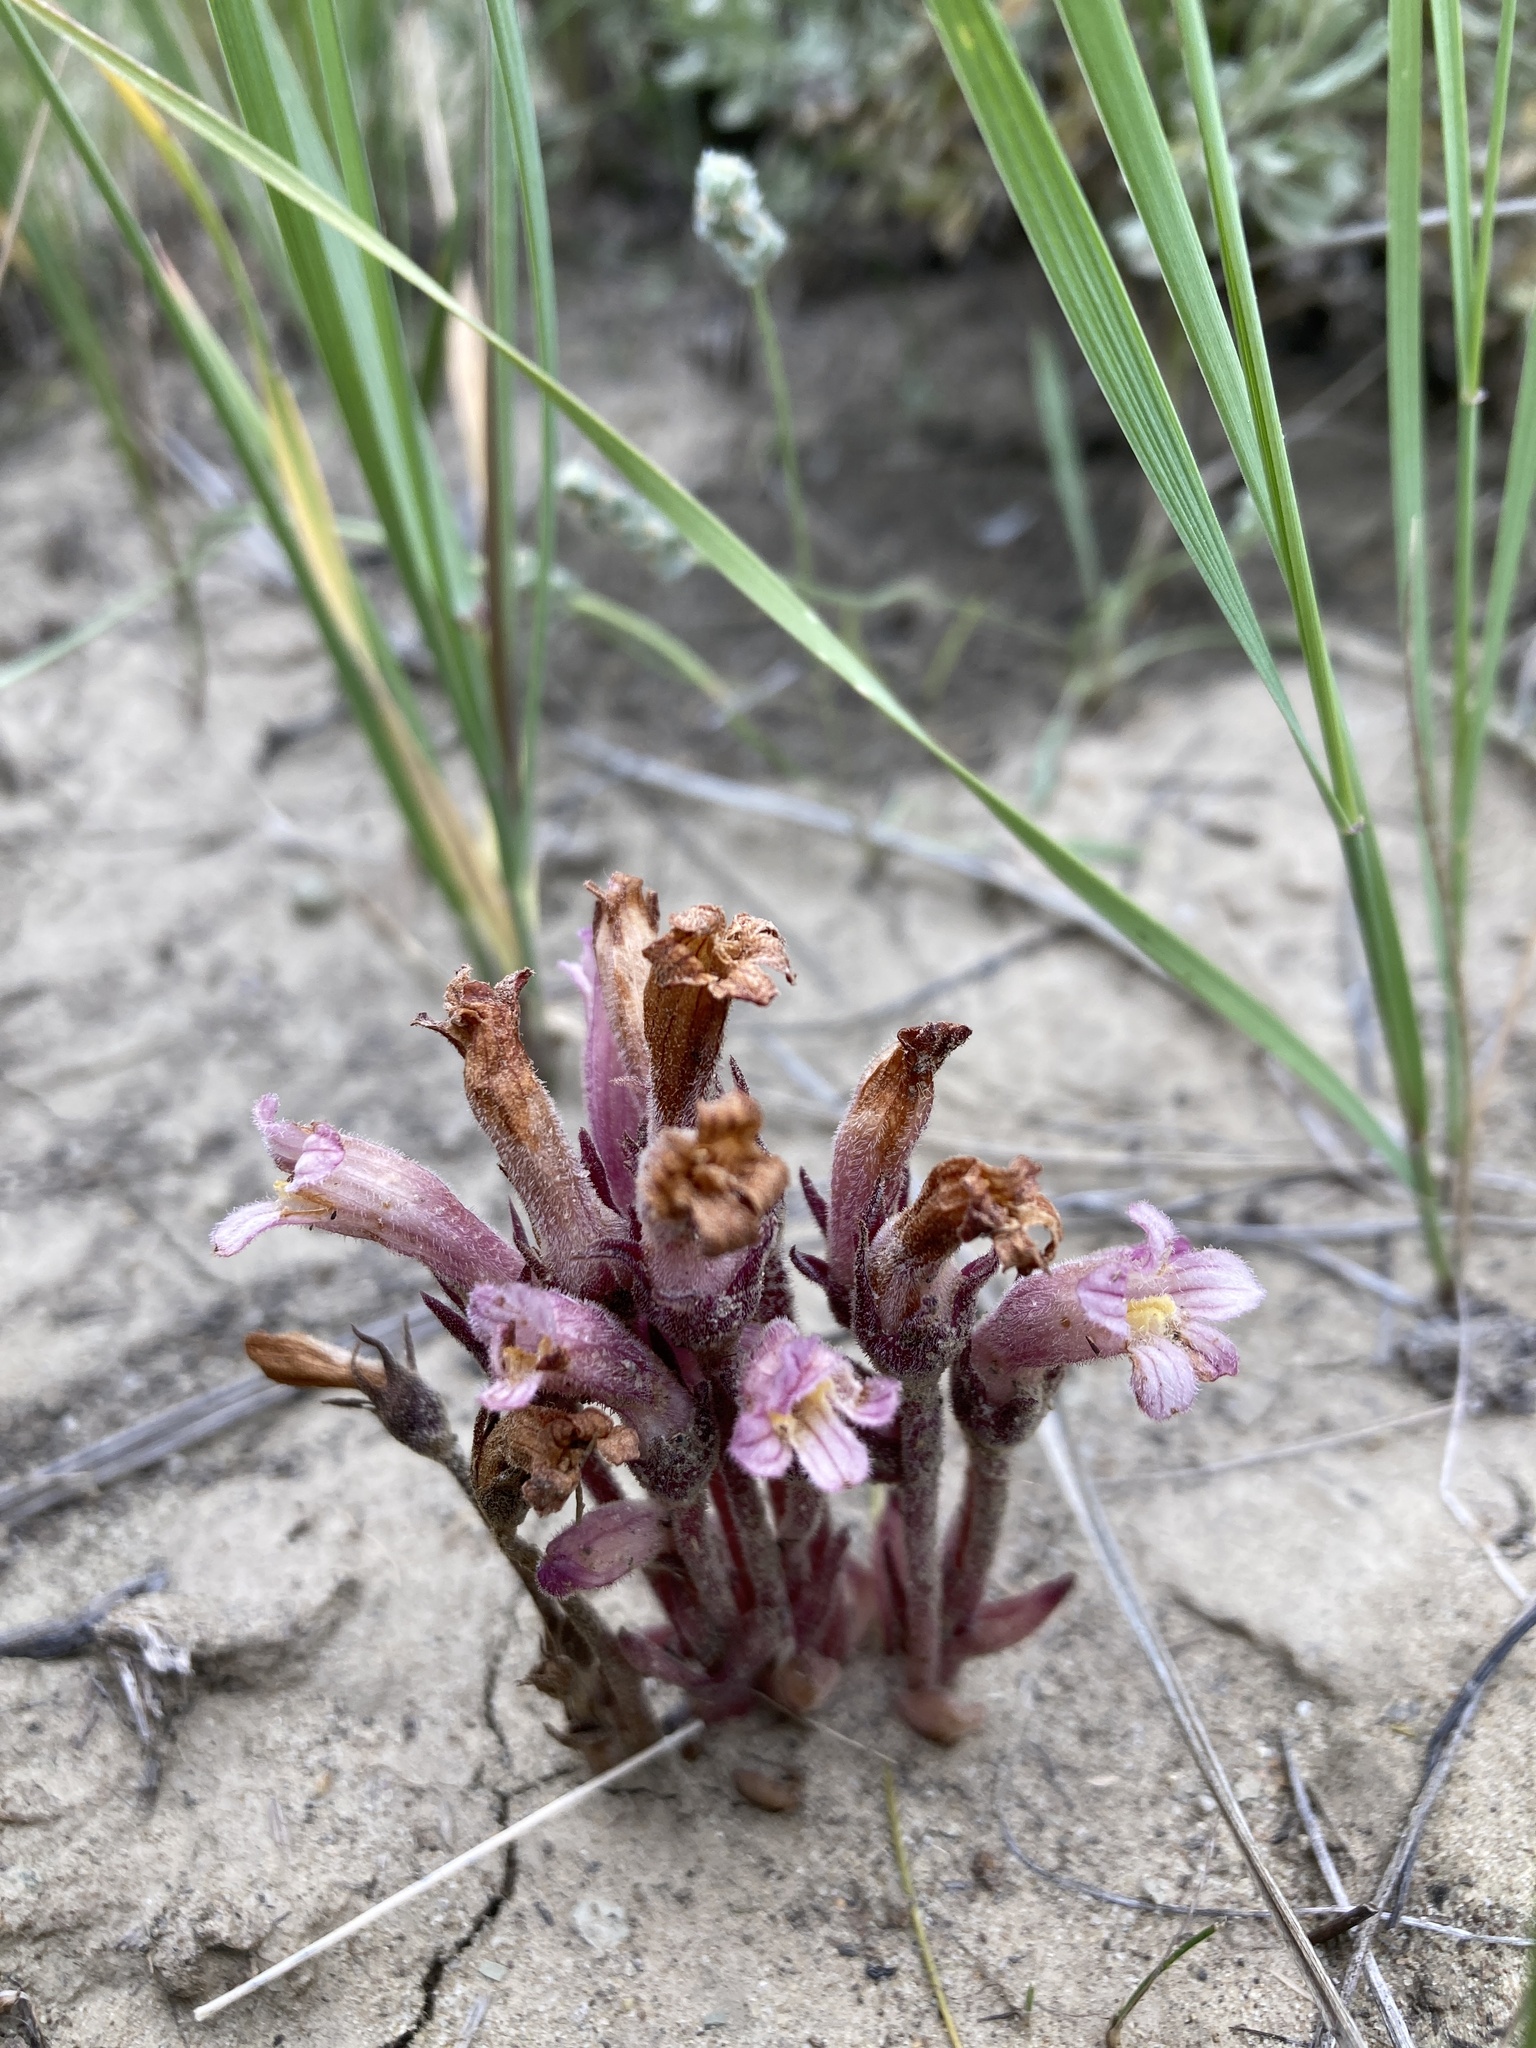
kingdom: Plantae
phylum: Tracheophyta
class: Magnoliopsida
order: Lamiales
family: Orobanchaceae
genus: Aphyllon
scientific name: Aphyllon fasciculatum
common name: Clustered broomrape
